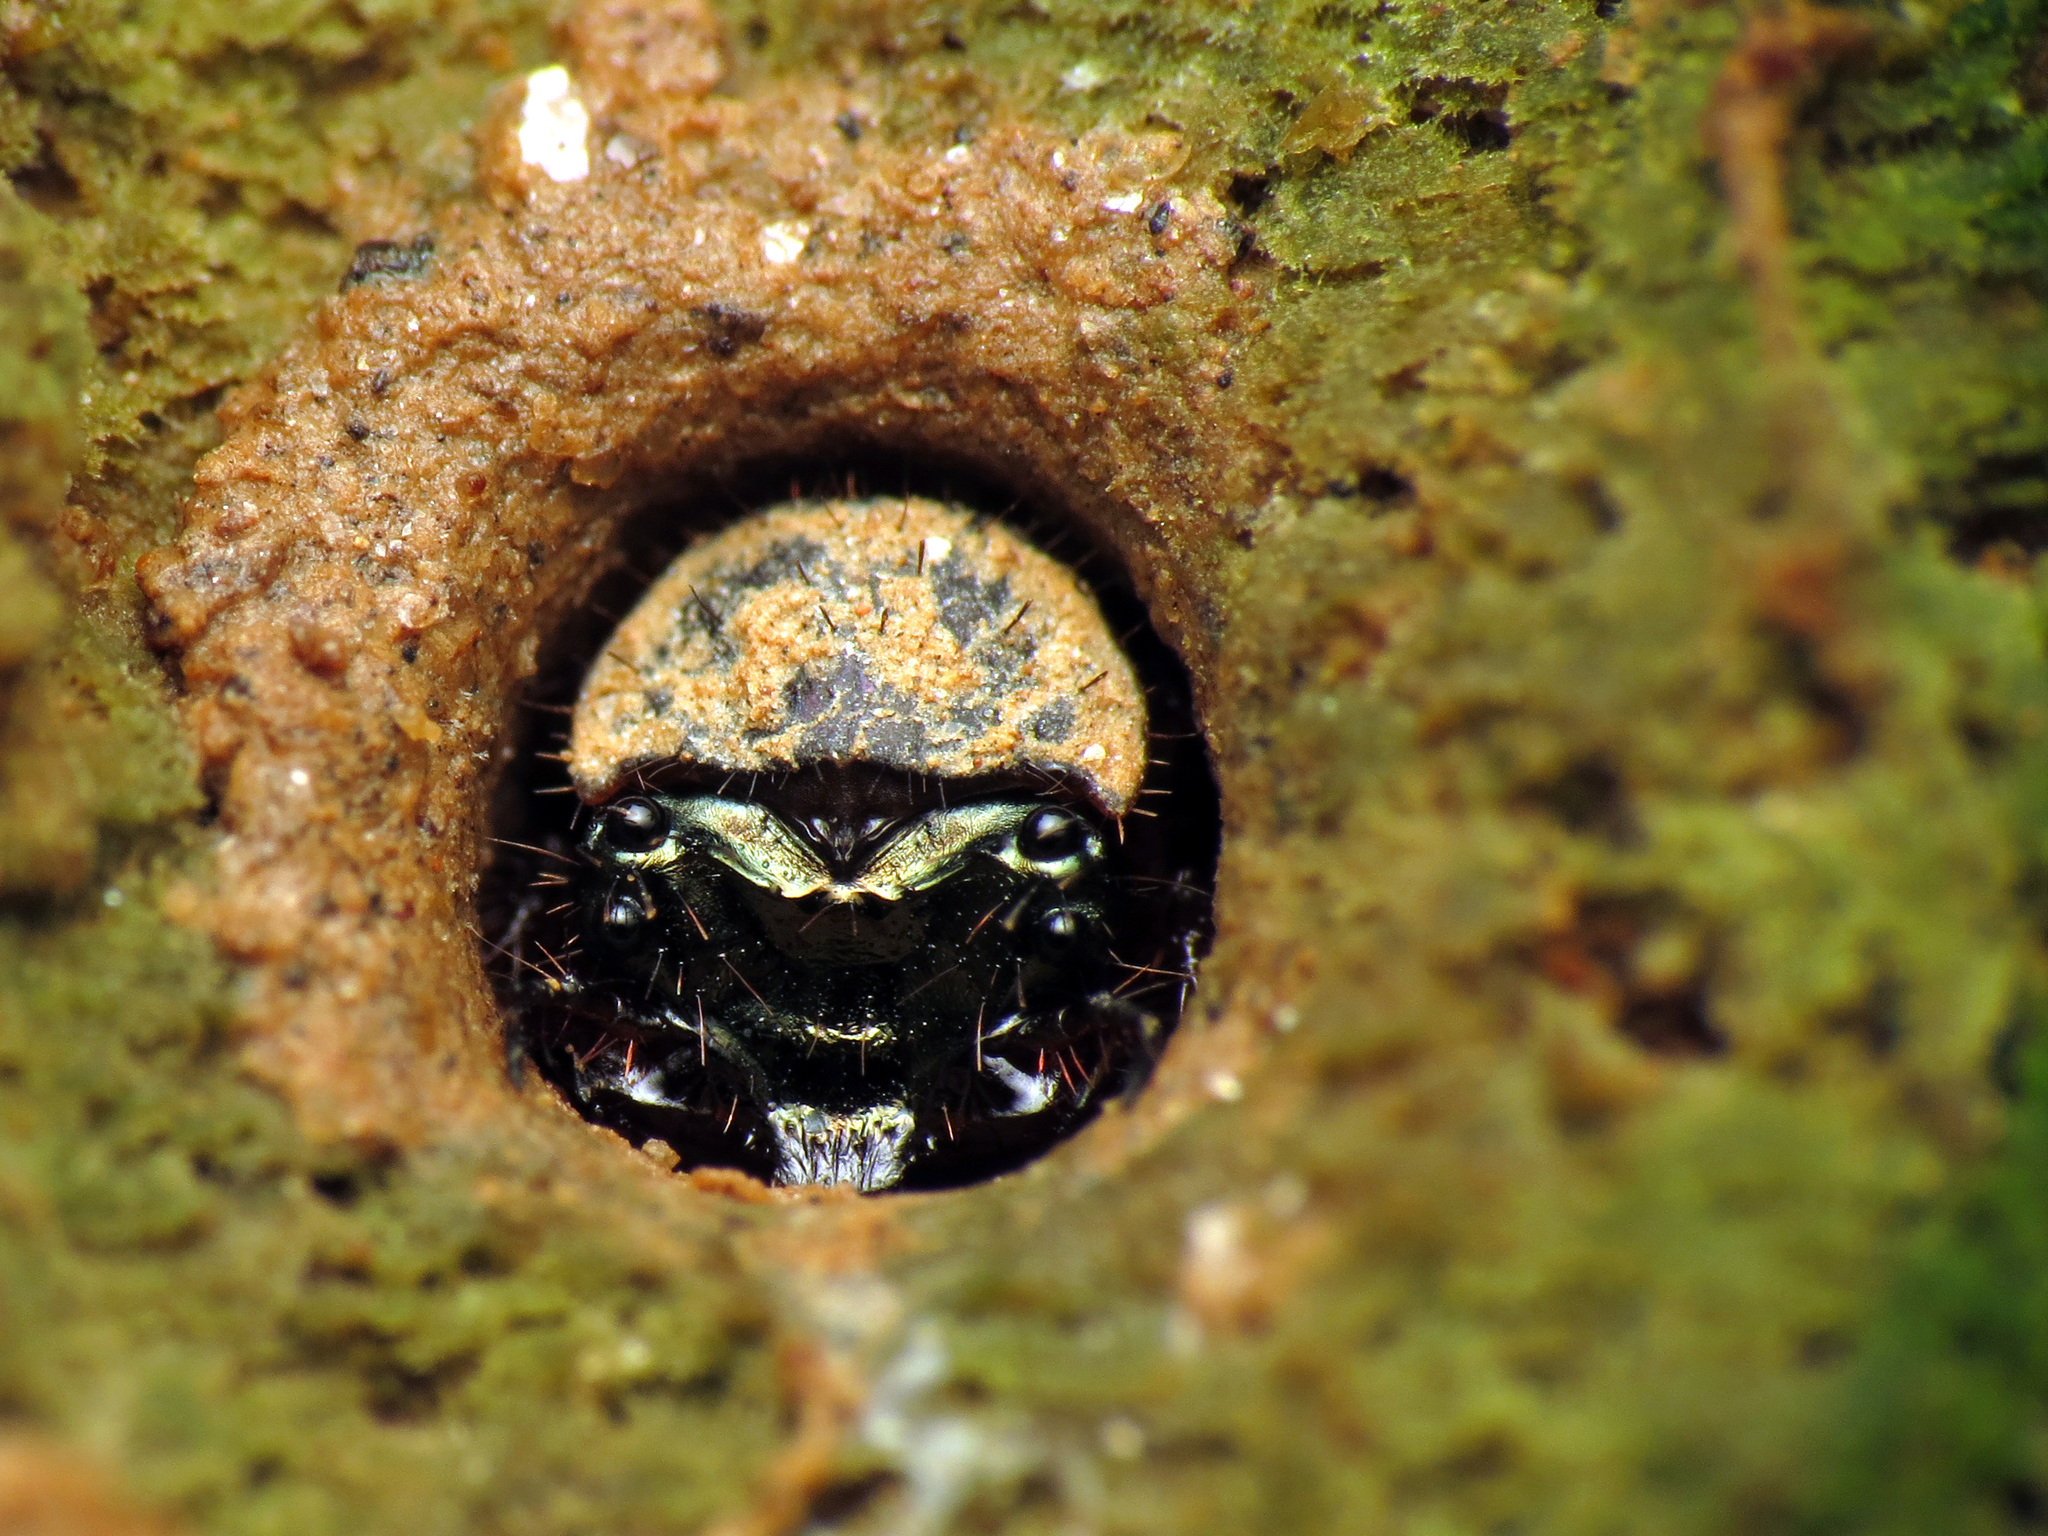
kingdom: Animalia
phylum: Arthropoda
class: Insecta
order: Coleoptera
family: Carabidae
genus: Cicindela
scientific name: Cicindela sexguttata
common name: Six-spotted tiger beetle
